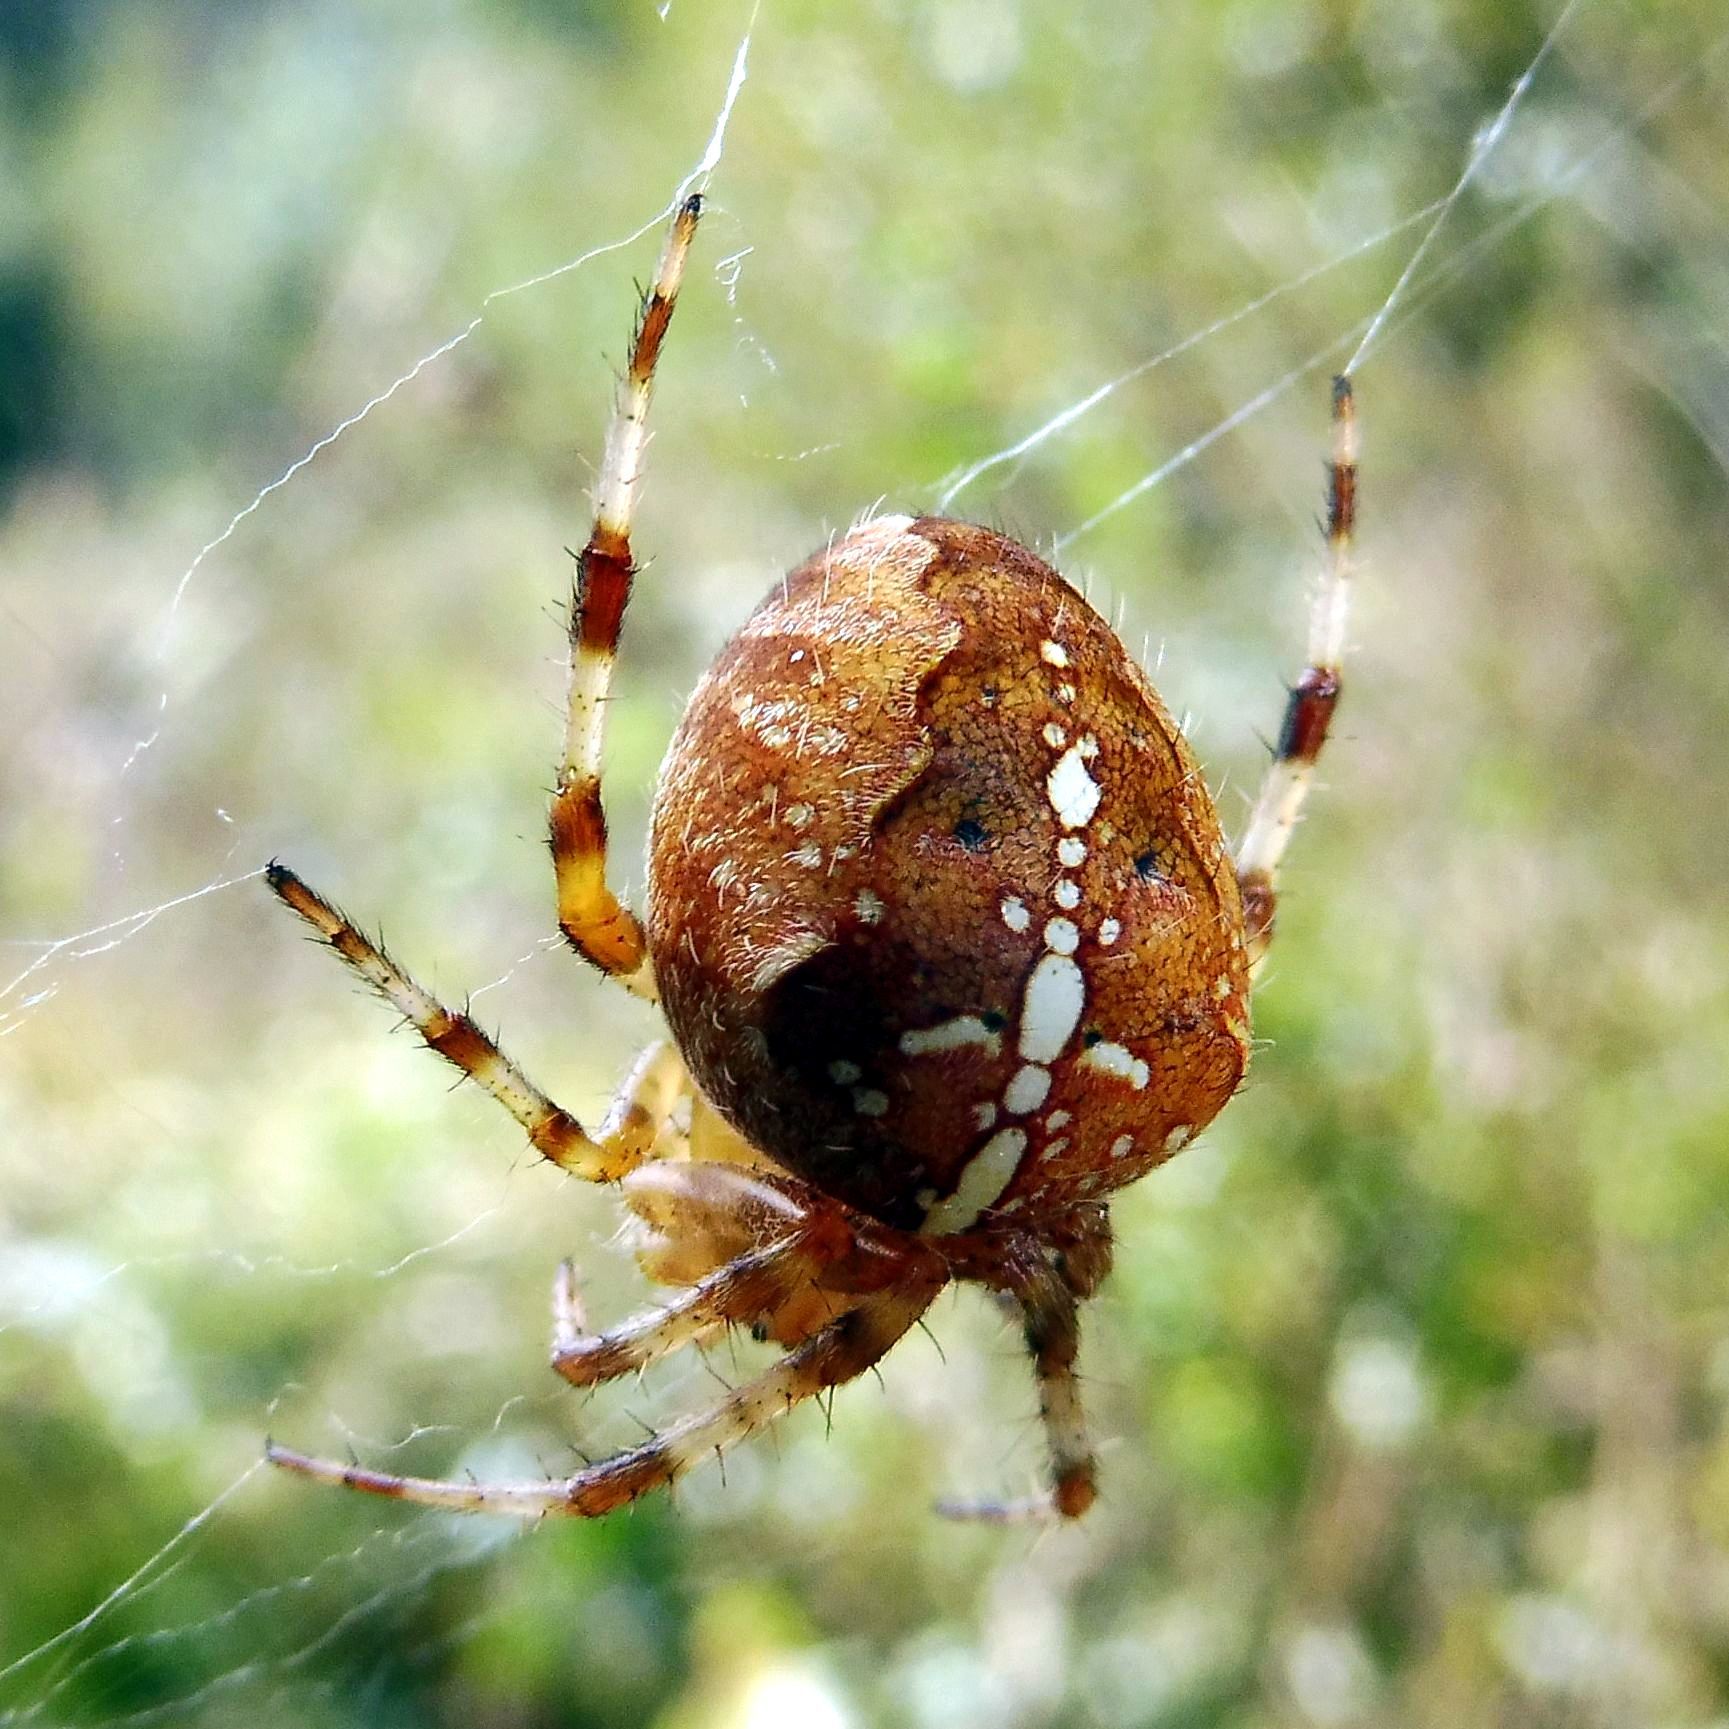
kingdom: Animalia
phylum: Arthropoda
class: Arachnida
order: Araneae
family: Araneidae
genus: Araneus
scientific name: Araneus diadematus
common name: Cross orbweaver
